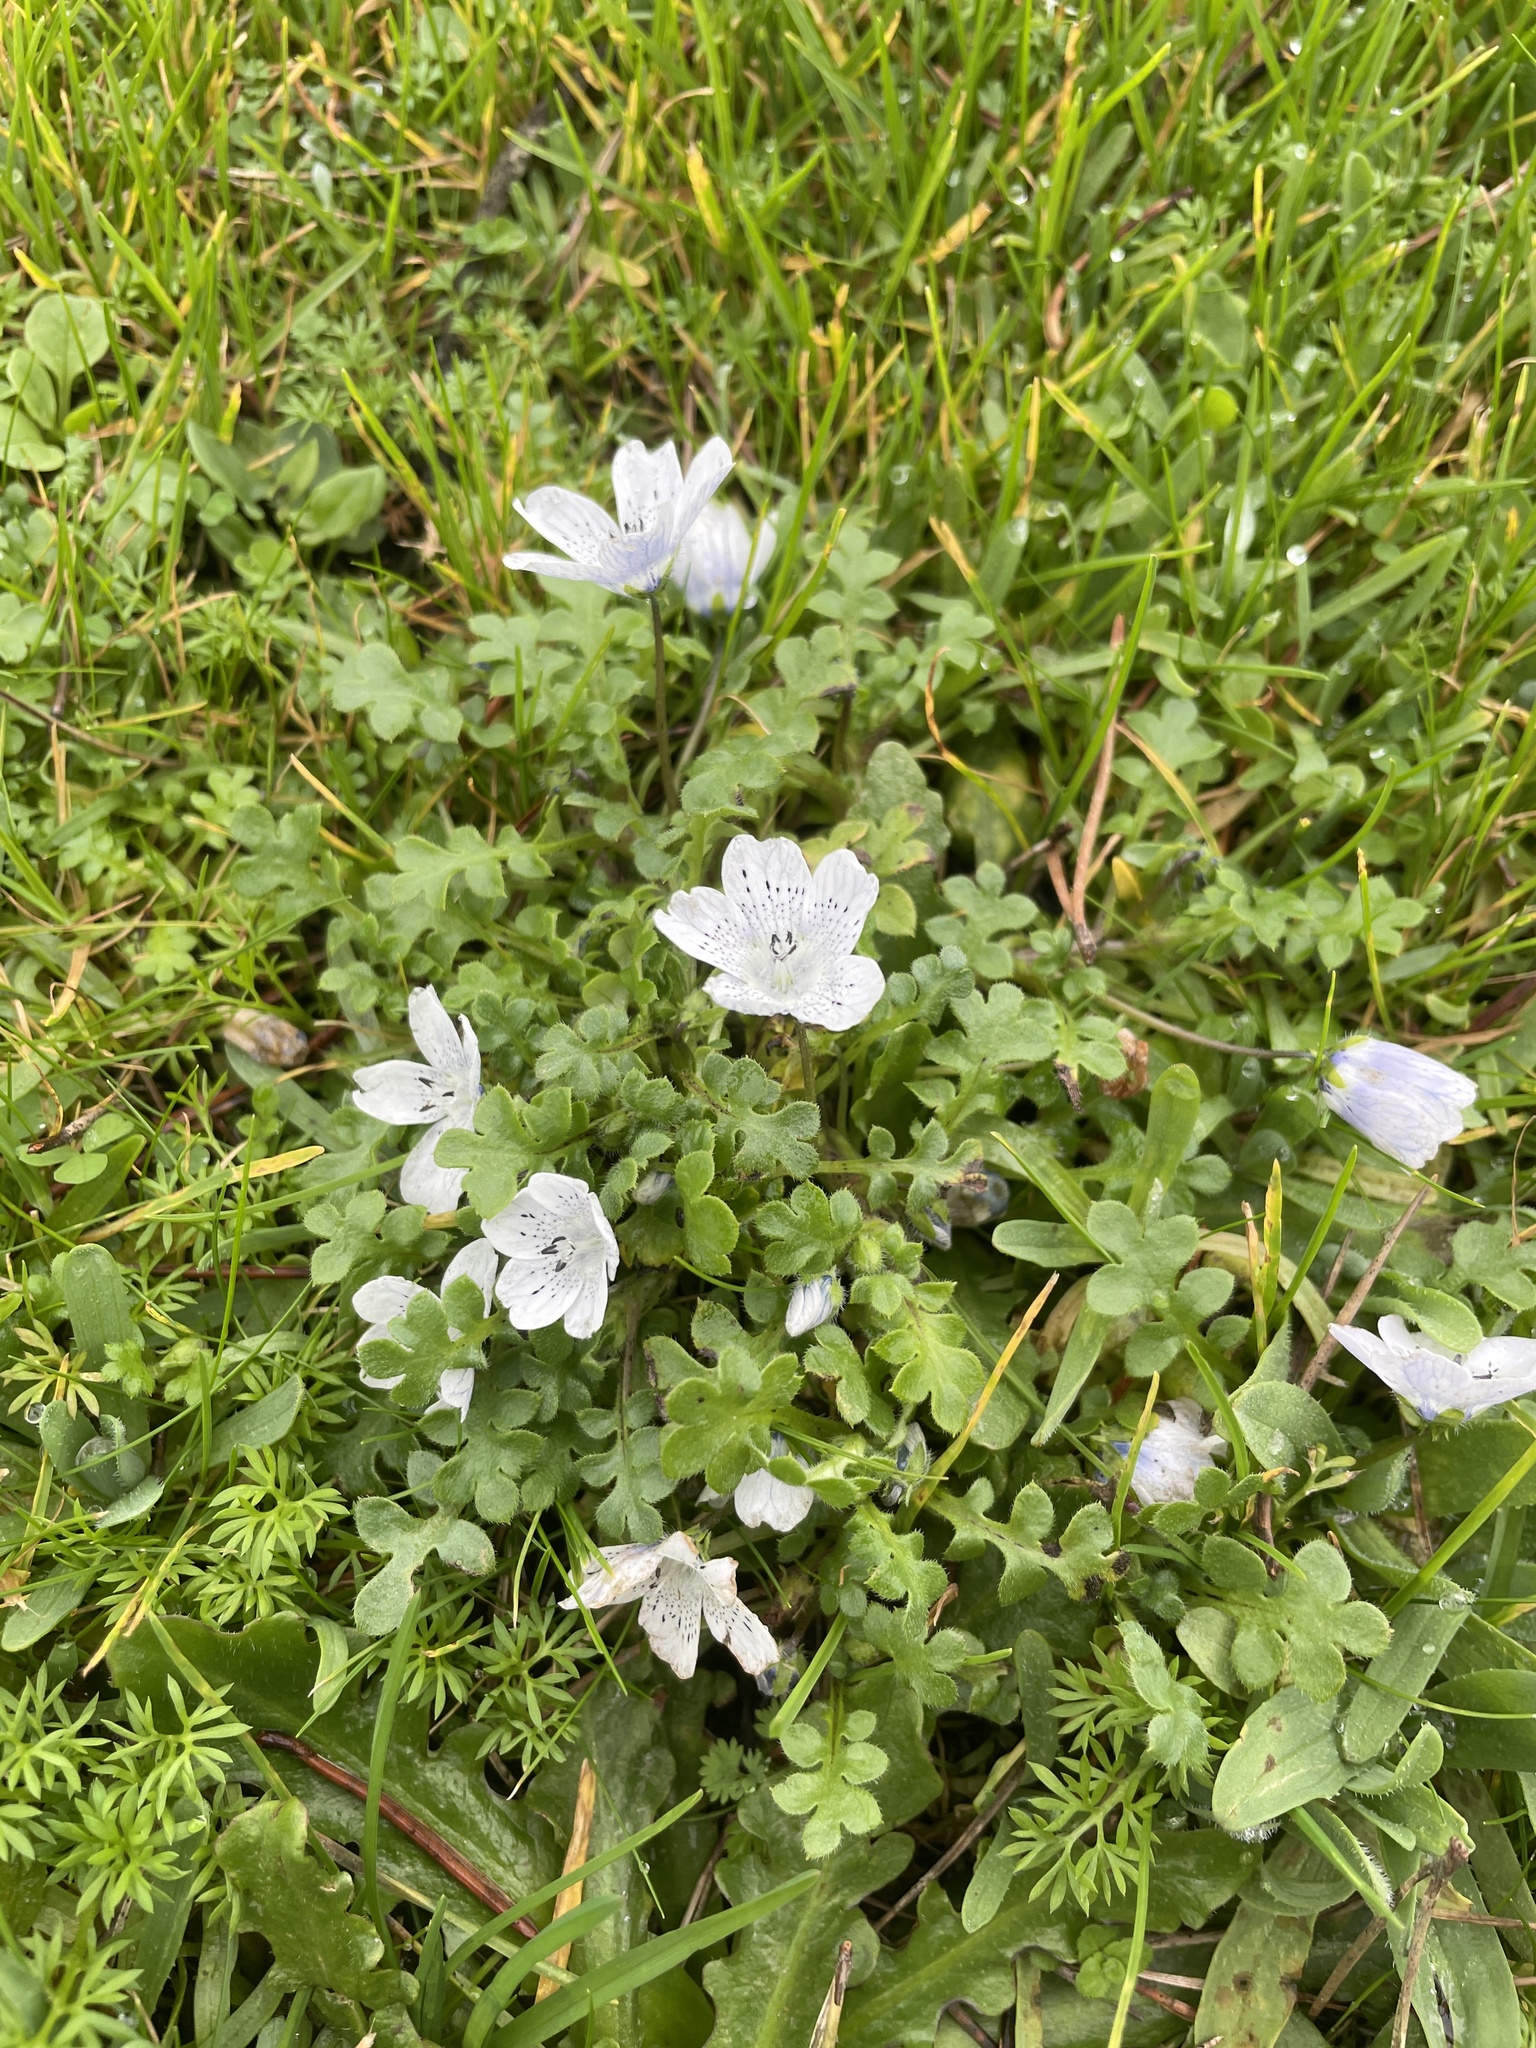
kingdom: Plantae
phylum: Tracheophyta
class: Magnoliopsida
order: Boraginales
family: Hydrophyllaceae
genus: Nemophila
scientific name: Nemophila menziesii
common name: Baby's-blue-eyes
